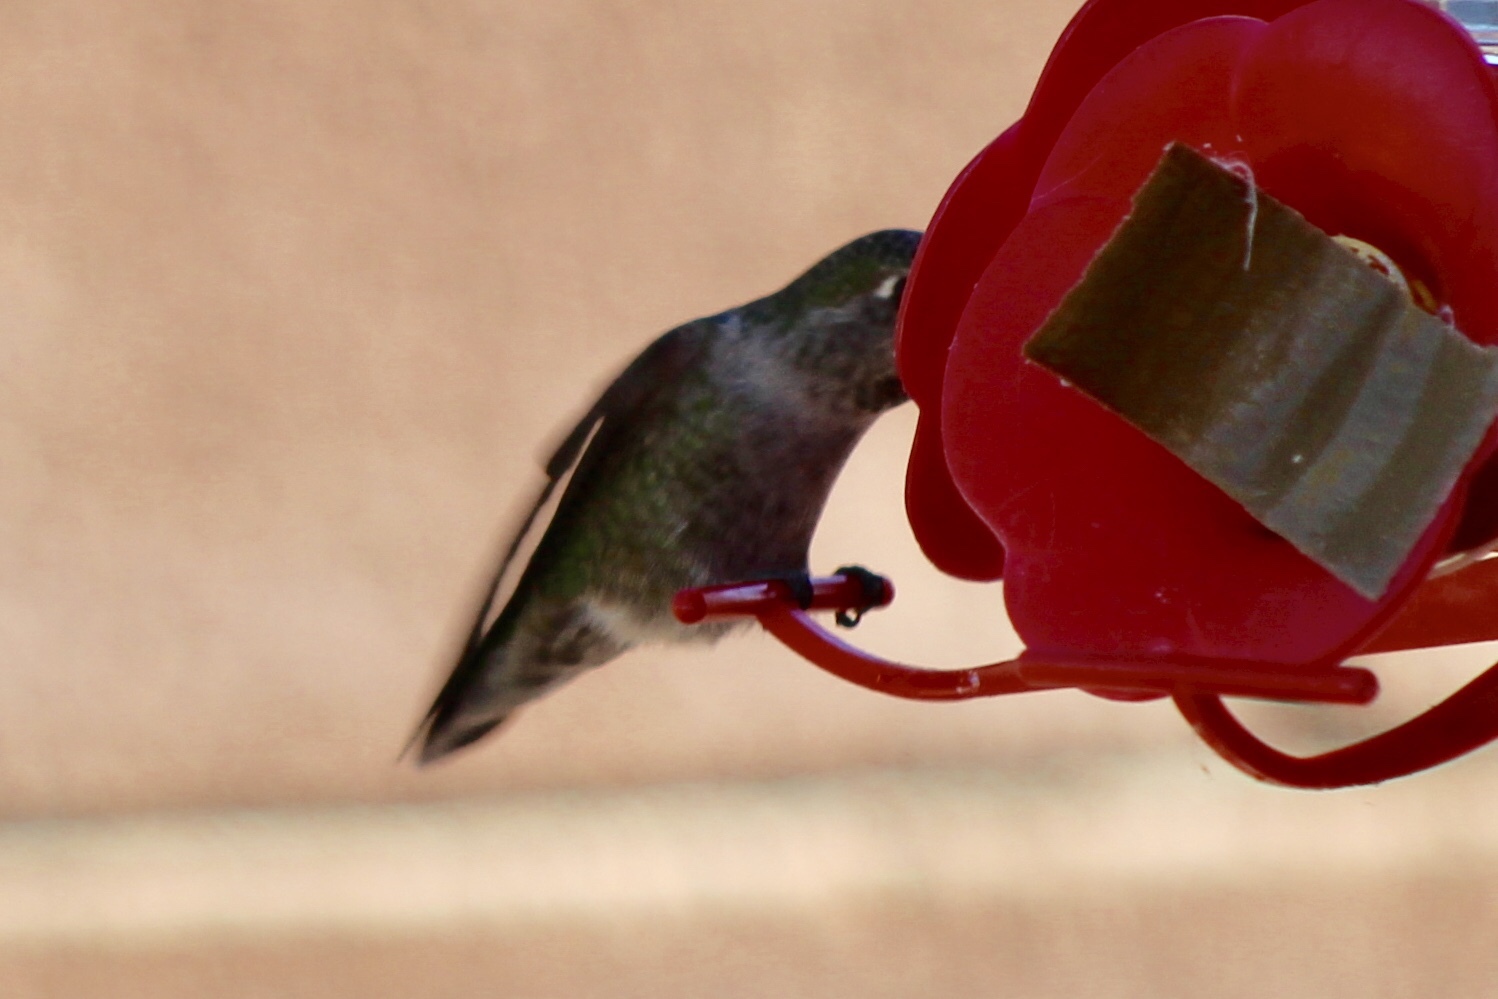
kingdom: Animalia
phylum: Chordata
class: Aves
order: Apodiformes
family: Trochilidae
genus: Calypte
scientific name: Calypte anna
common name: Anna's hummingbird
